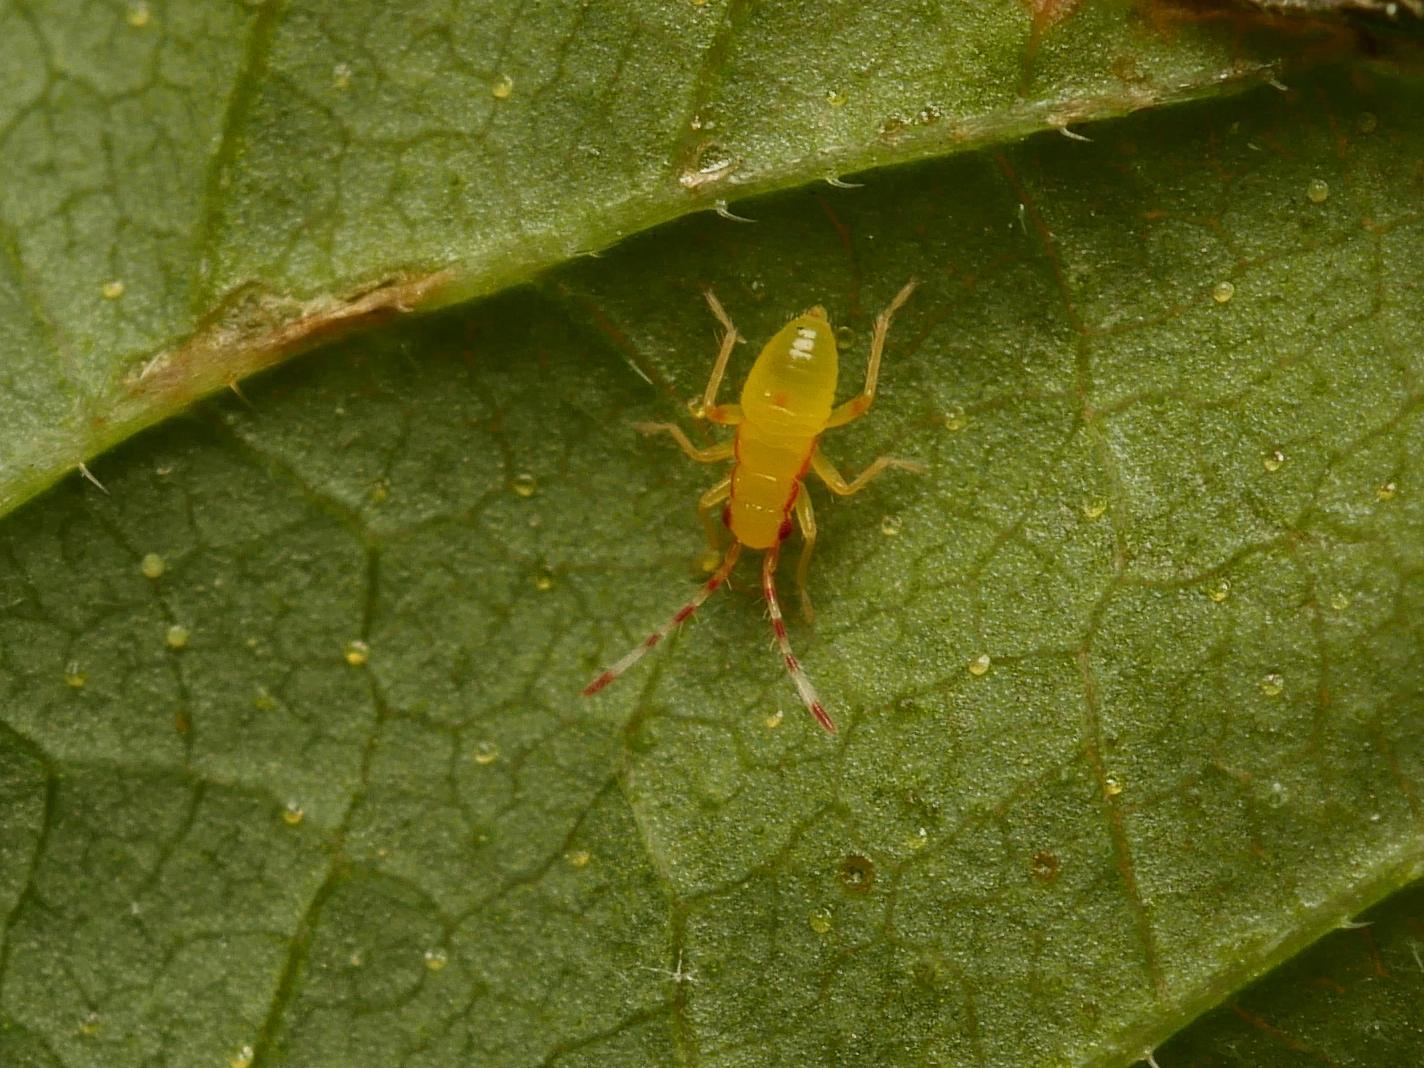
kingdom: Animalia
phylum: Arthropoda
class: Insecta
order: Hemiptera
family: Miridae
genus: Campyloneura
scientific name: Campyloneura virgula
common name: Predatory bug
